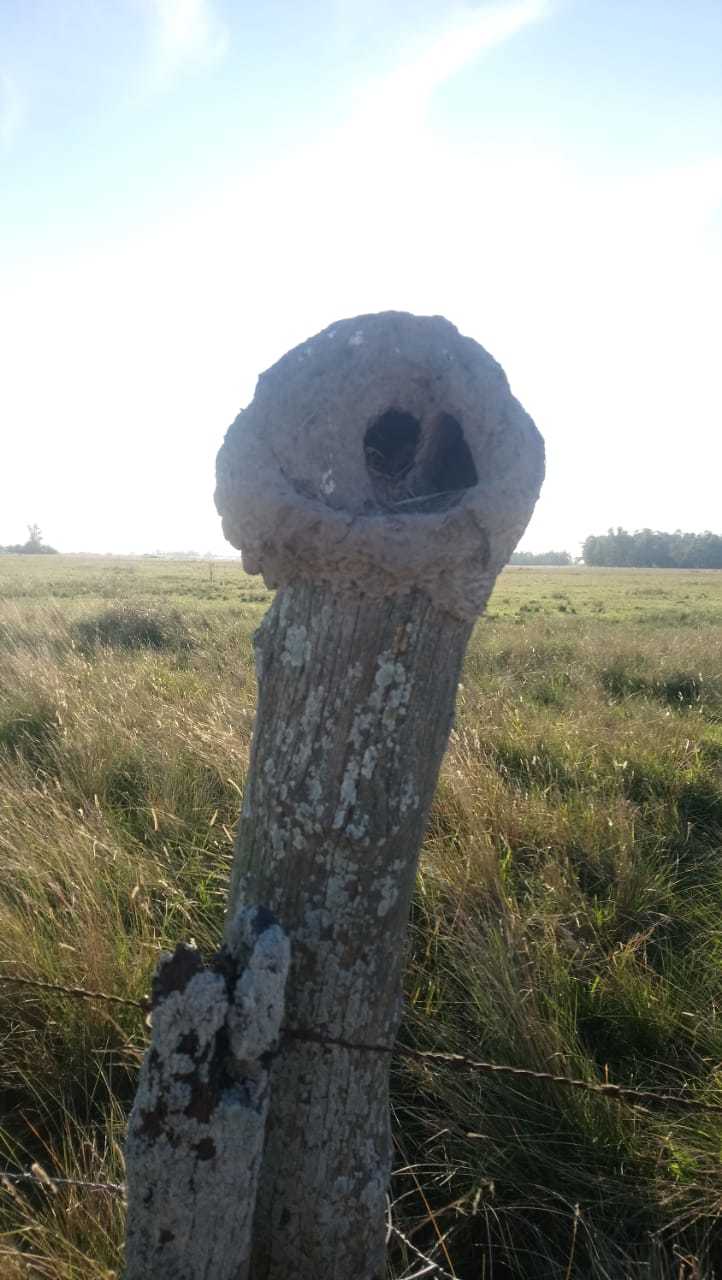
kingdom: Animalia
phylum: Chordata
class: Aves
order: Passeriformes
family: Furnariidae
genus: Furnarius
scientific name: Furnarius rufus
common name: Rufous hornero
